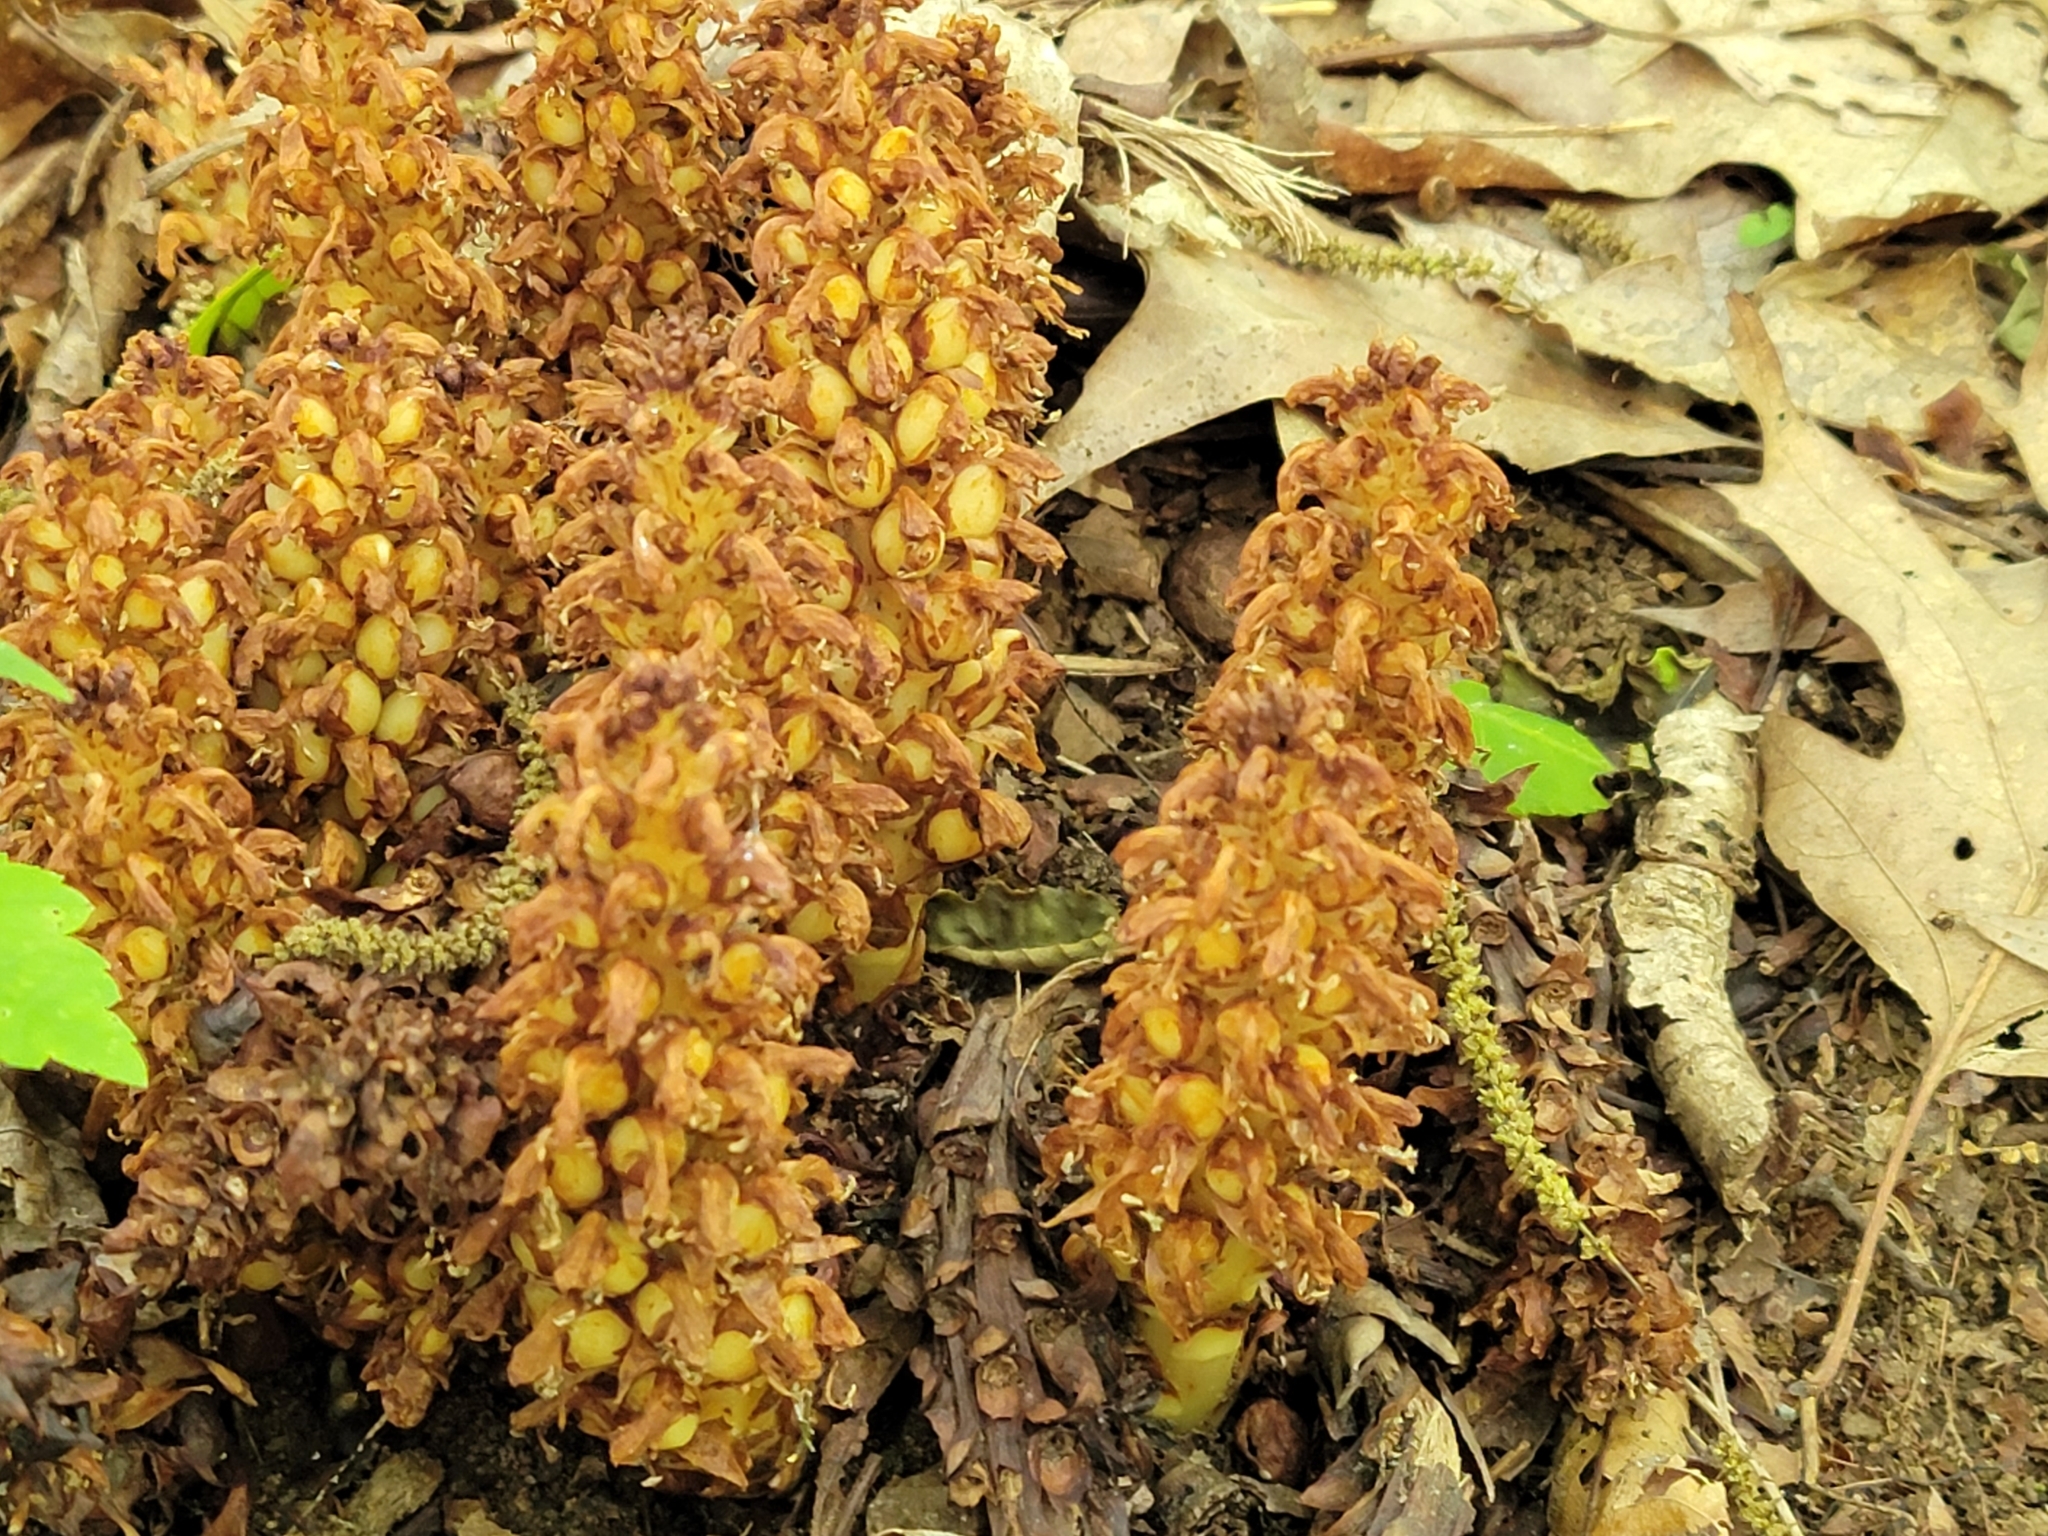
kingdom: Plantae
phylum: Tracheophyta
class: Magnoliopsida
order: Lamiales
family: Orobanchaceae
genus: Conopholis
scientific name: Conopholis americana
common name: American cancer-root
